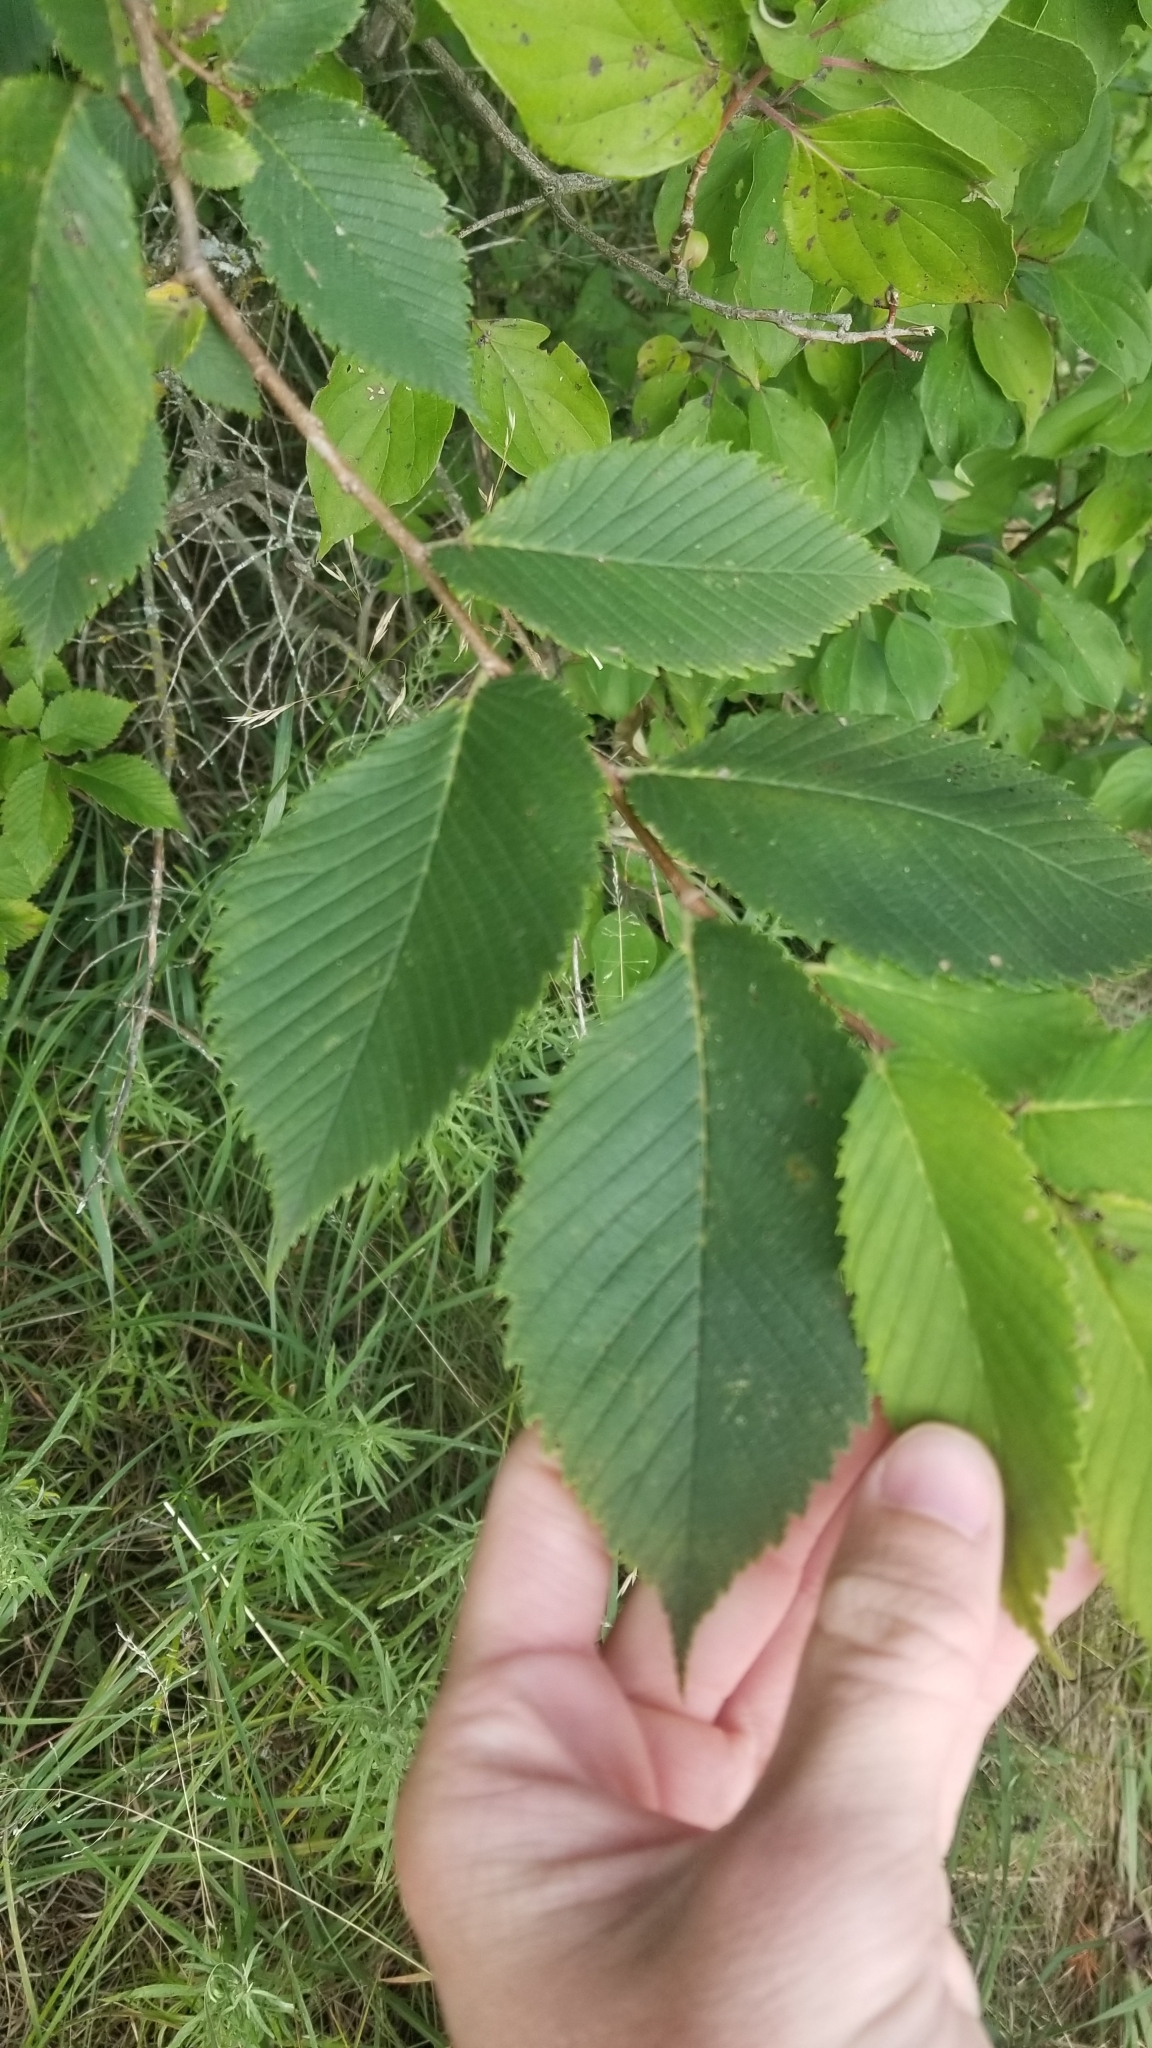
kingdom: Plantae
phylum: Tracheophyta
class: Magnoliopsida
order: Rosales
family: Ulmaceae
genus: Ulmus
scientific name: Ulmus americana
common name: American elm
